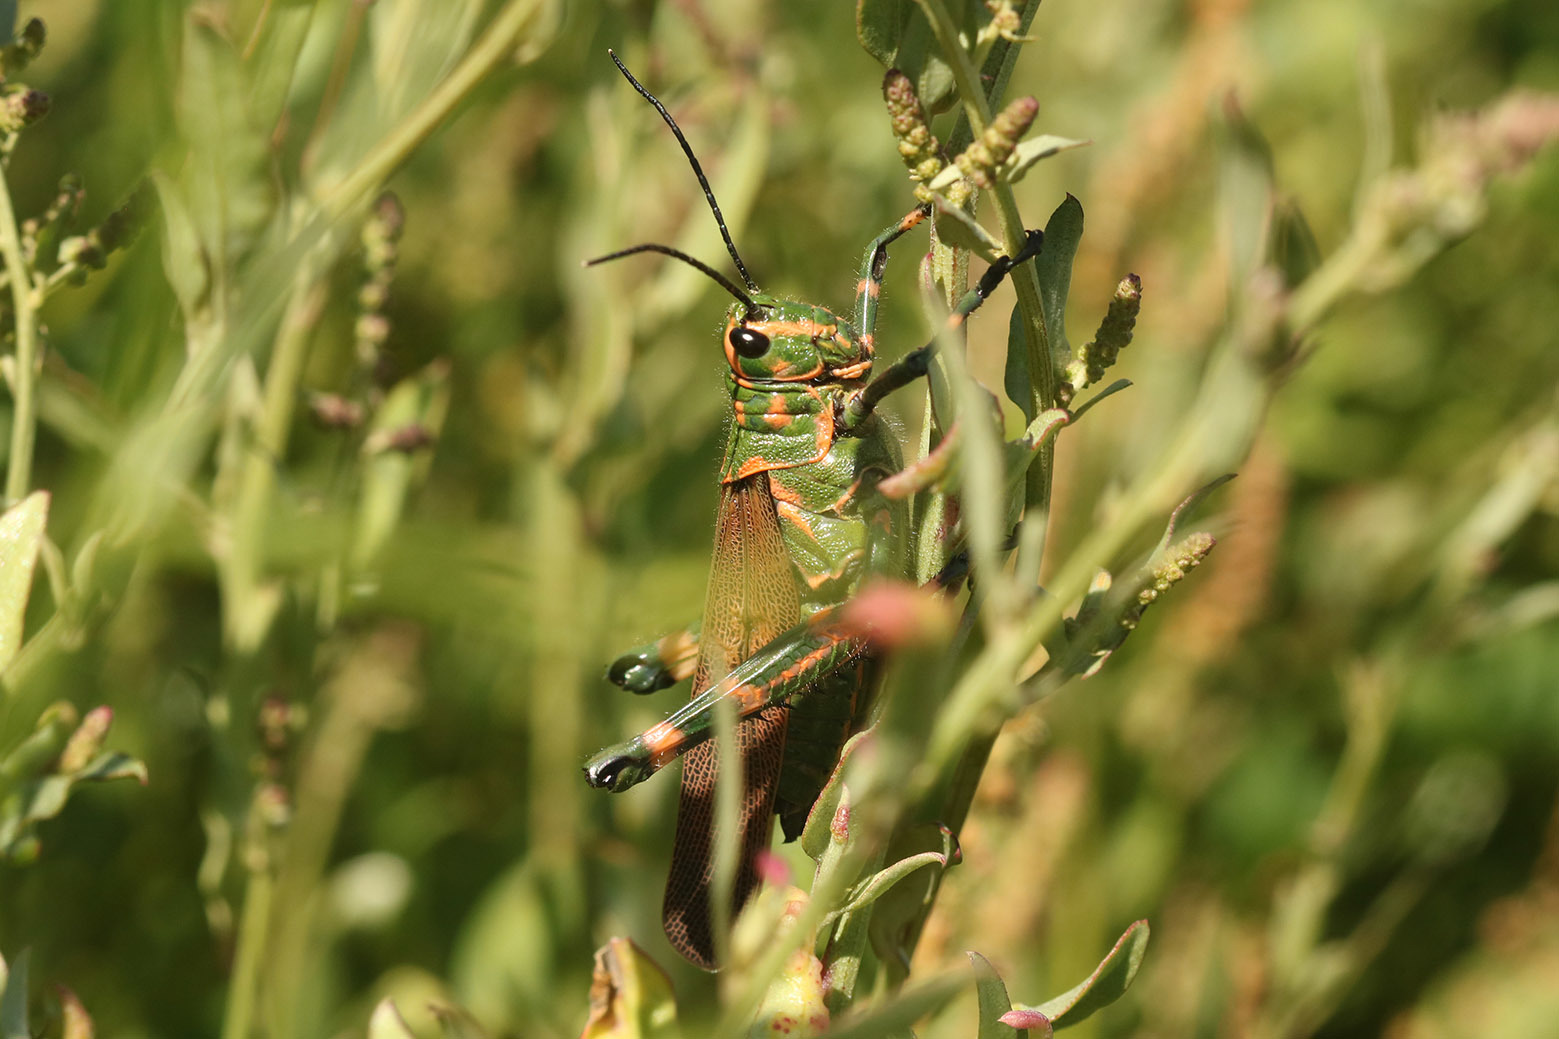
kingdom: Animalia
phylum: Arthropoda
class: Insecta
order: Orthoptera
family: Romaleidae
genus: Chromacris
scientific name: Chromacris speciosa
